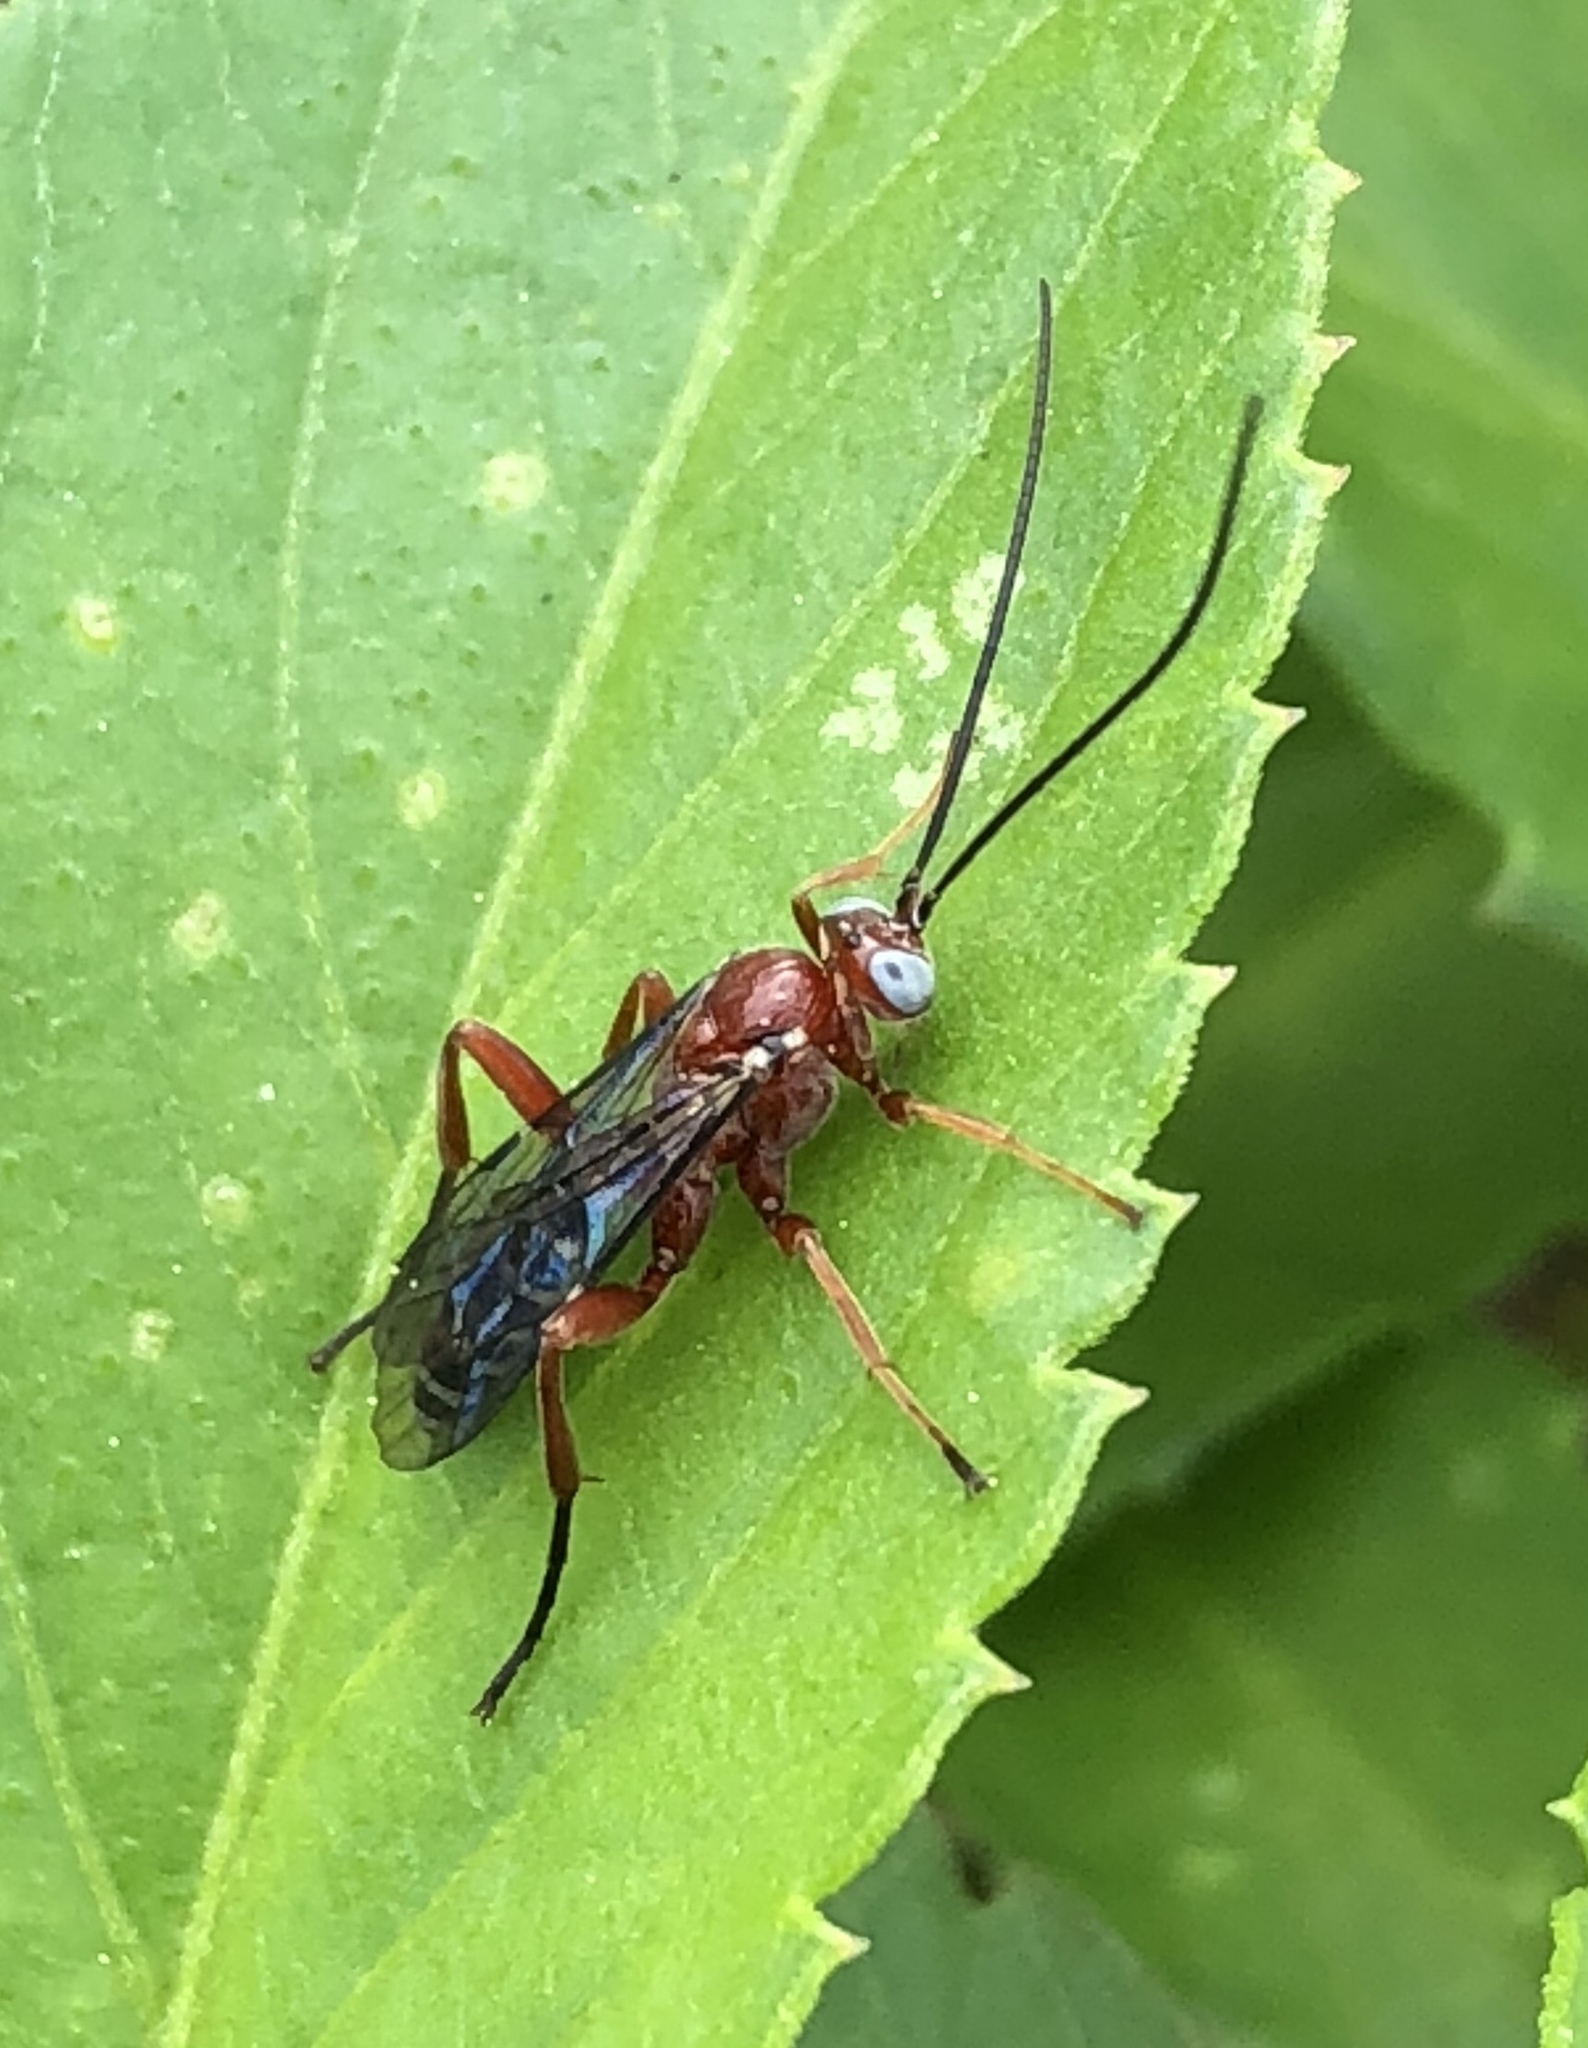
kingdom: Animalia
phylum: Arthropoda
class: Insecta
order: Hymenoptera
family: Ichneumonidae
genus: Pimpla
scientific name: Pimpla marginella
